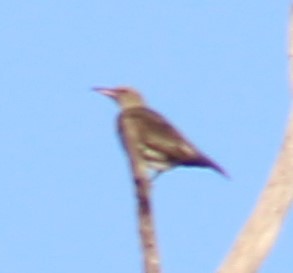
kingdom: Animalia
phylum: Chordata
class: Aves
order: Passeriformes
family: Oriolidae
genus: Oriolus
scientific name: Oriolus sagittatus
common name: Olive-backed oriole
